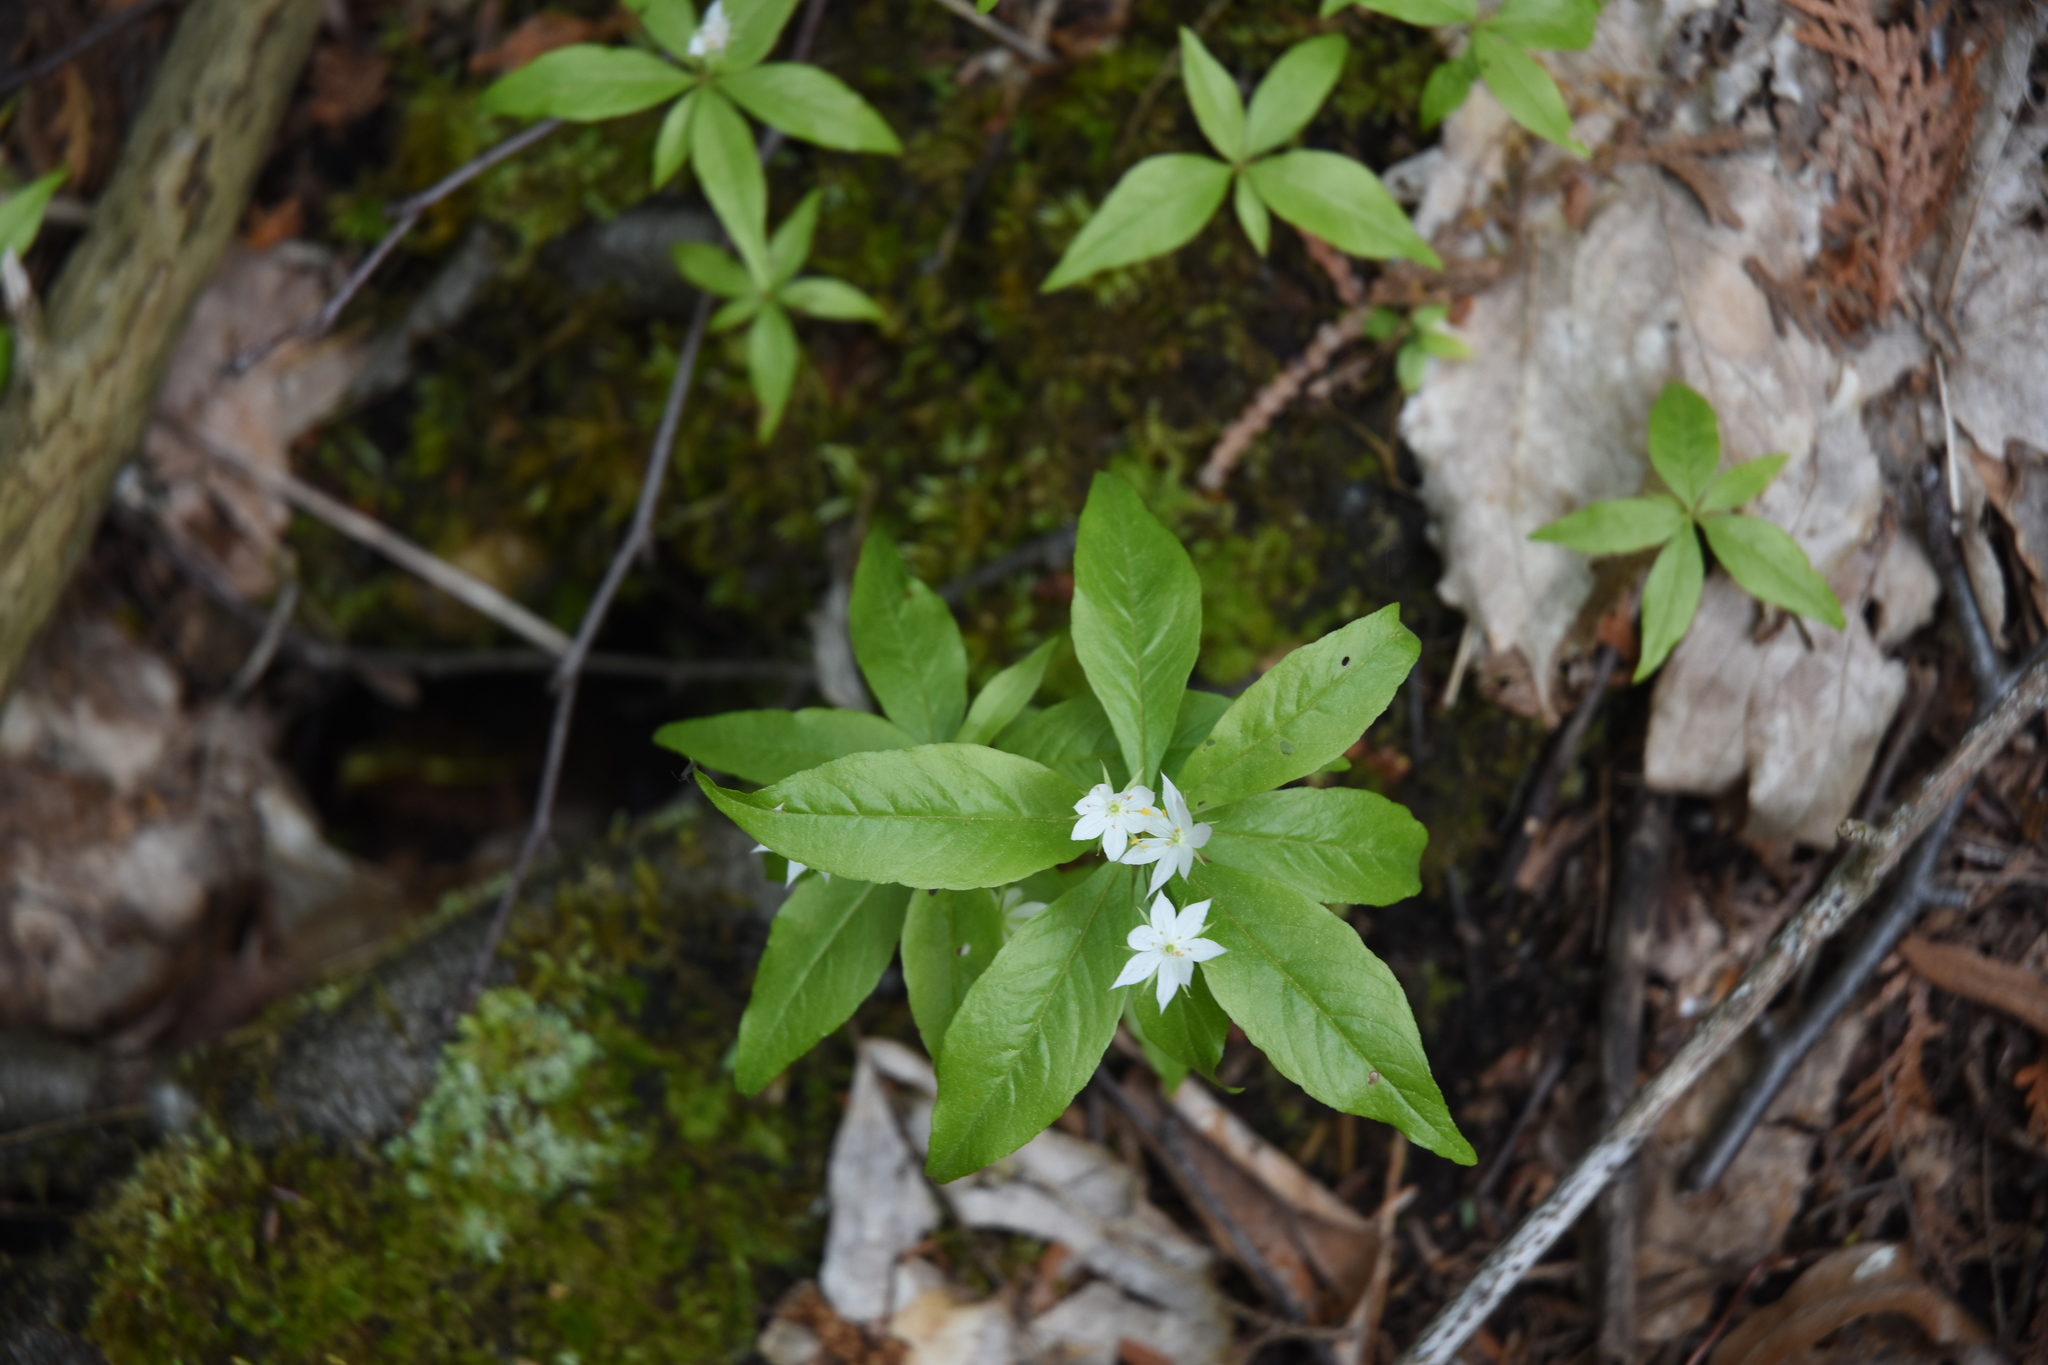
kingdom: Plantae
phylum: Tracheophyta
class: Magnoliopsida
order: Ericales
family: Primulaceae
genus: Lysimachia
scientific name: Lysimachia borealis
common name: American starflower
